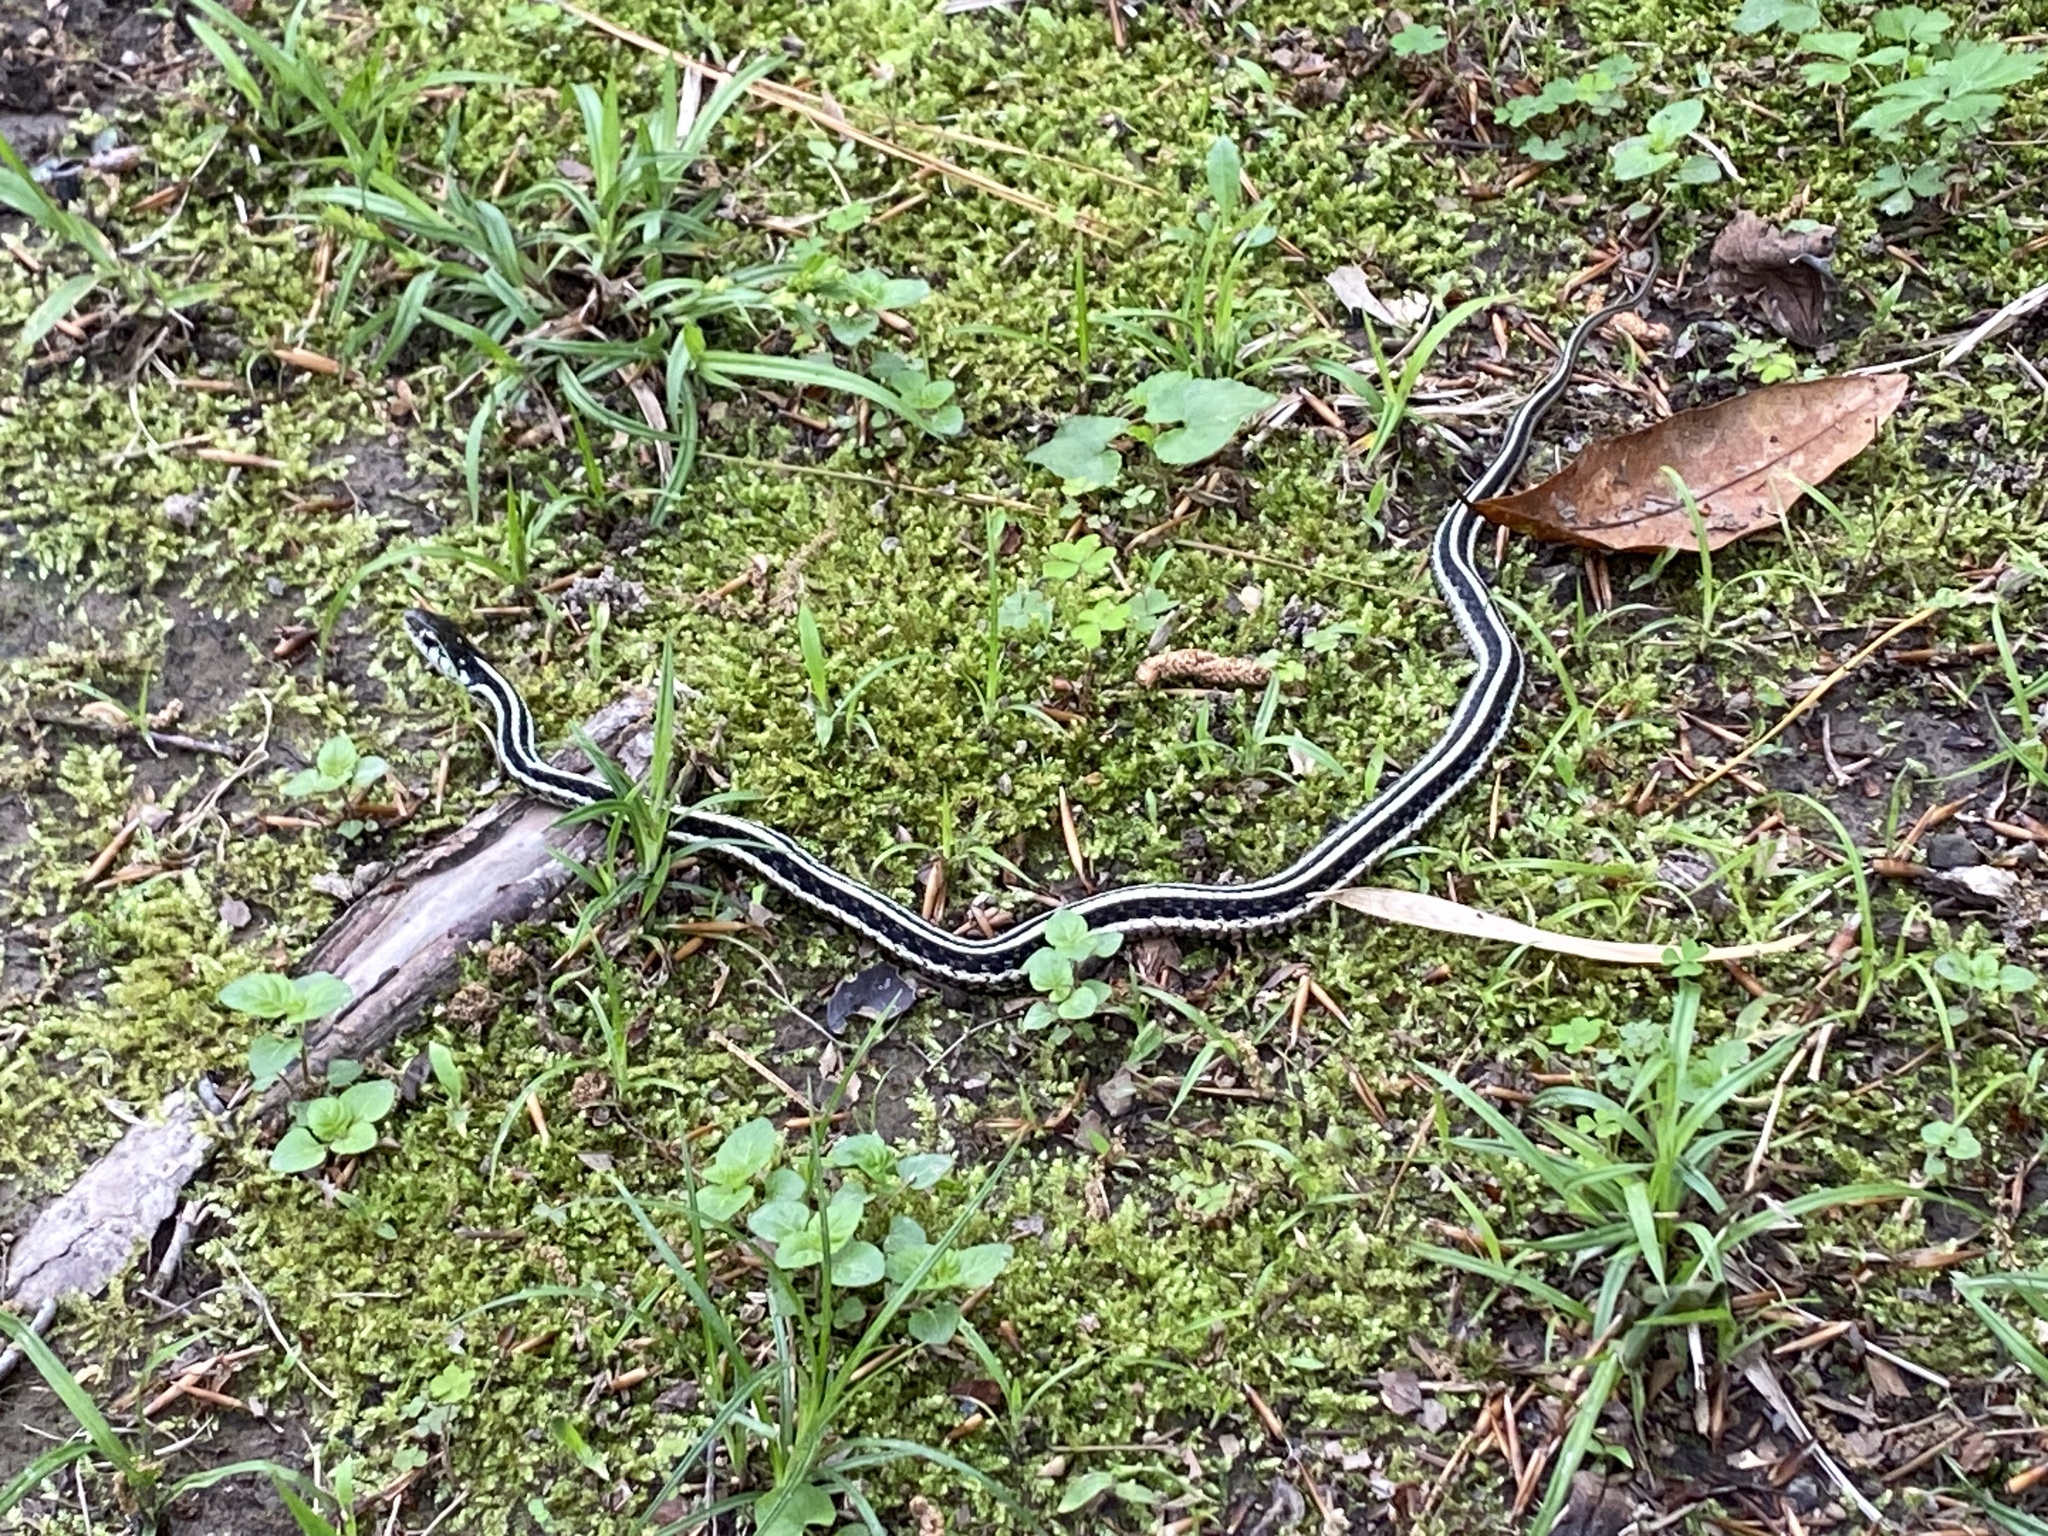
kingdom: Animalia
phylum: Chordata
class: Squamata
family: Colubridae
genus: Thamnophis
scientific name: Thamnophis sirtalis
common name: Common garter snake
